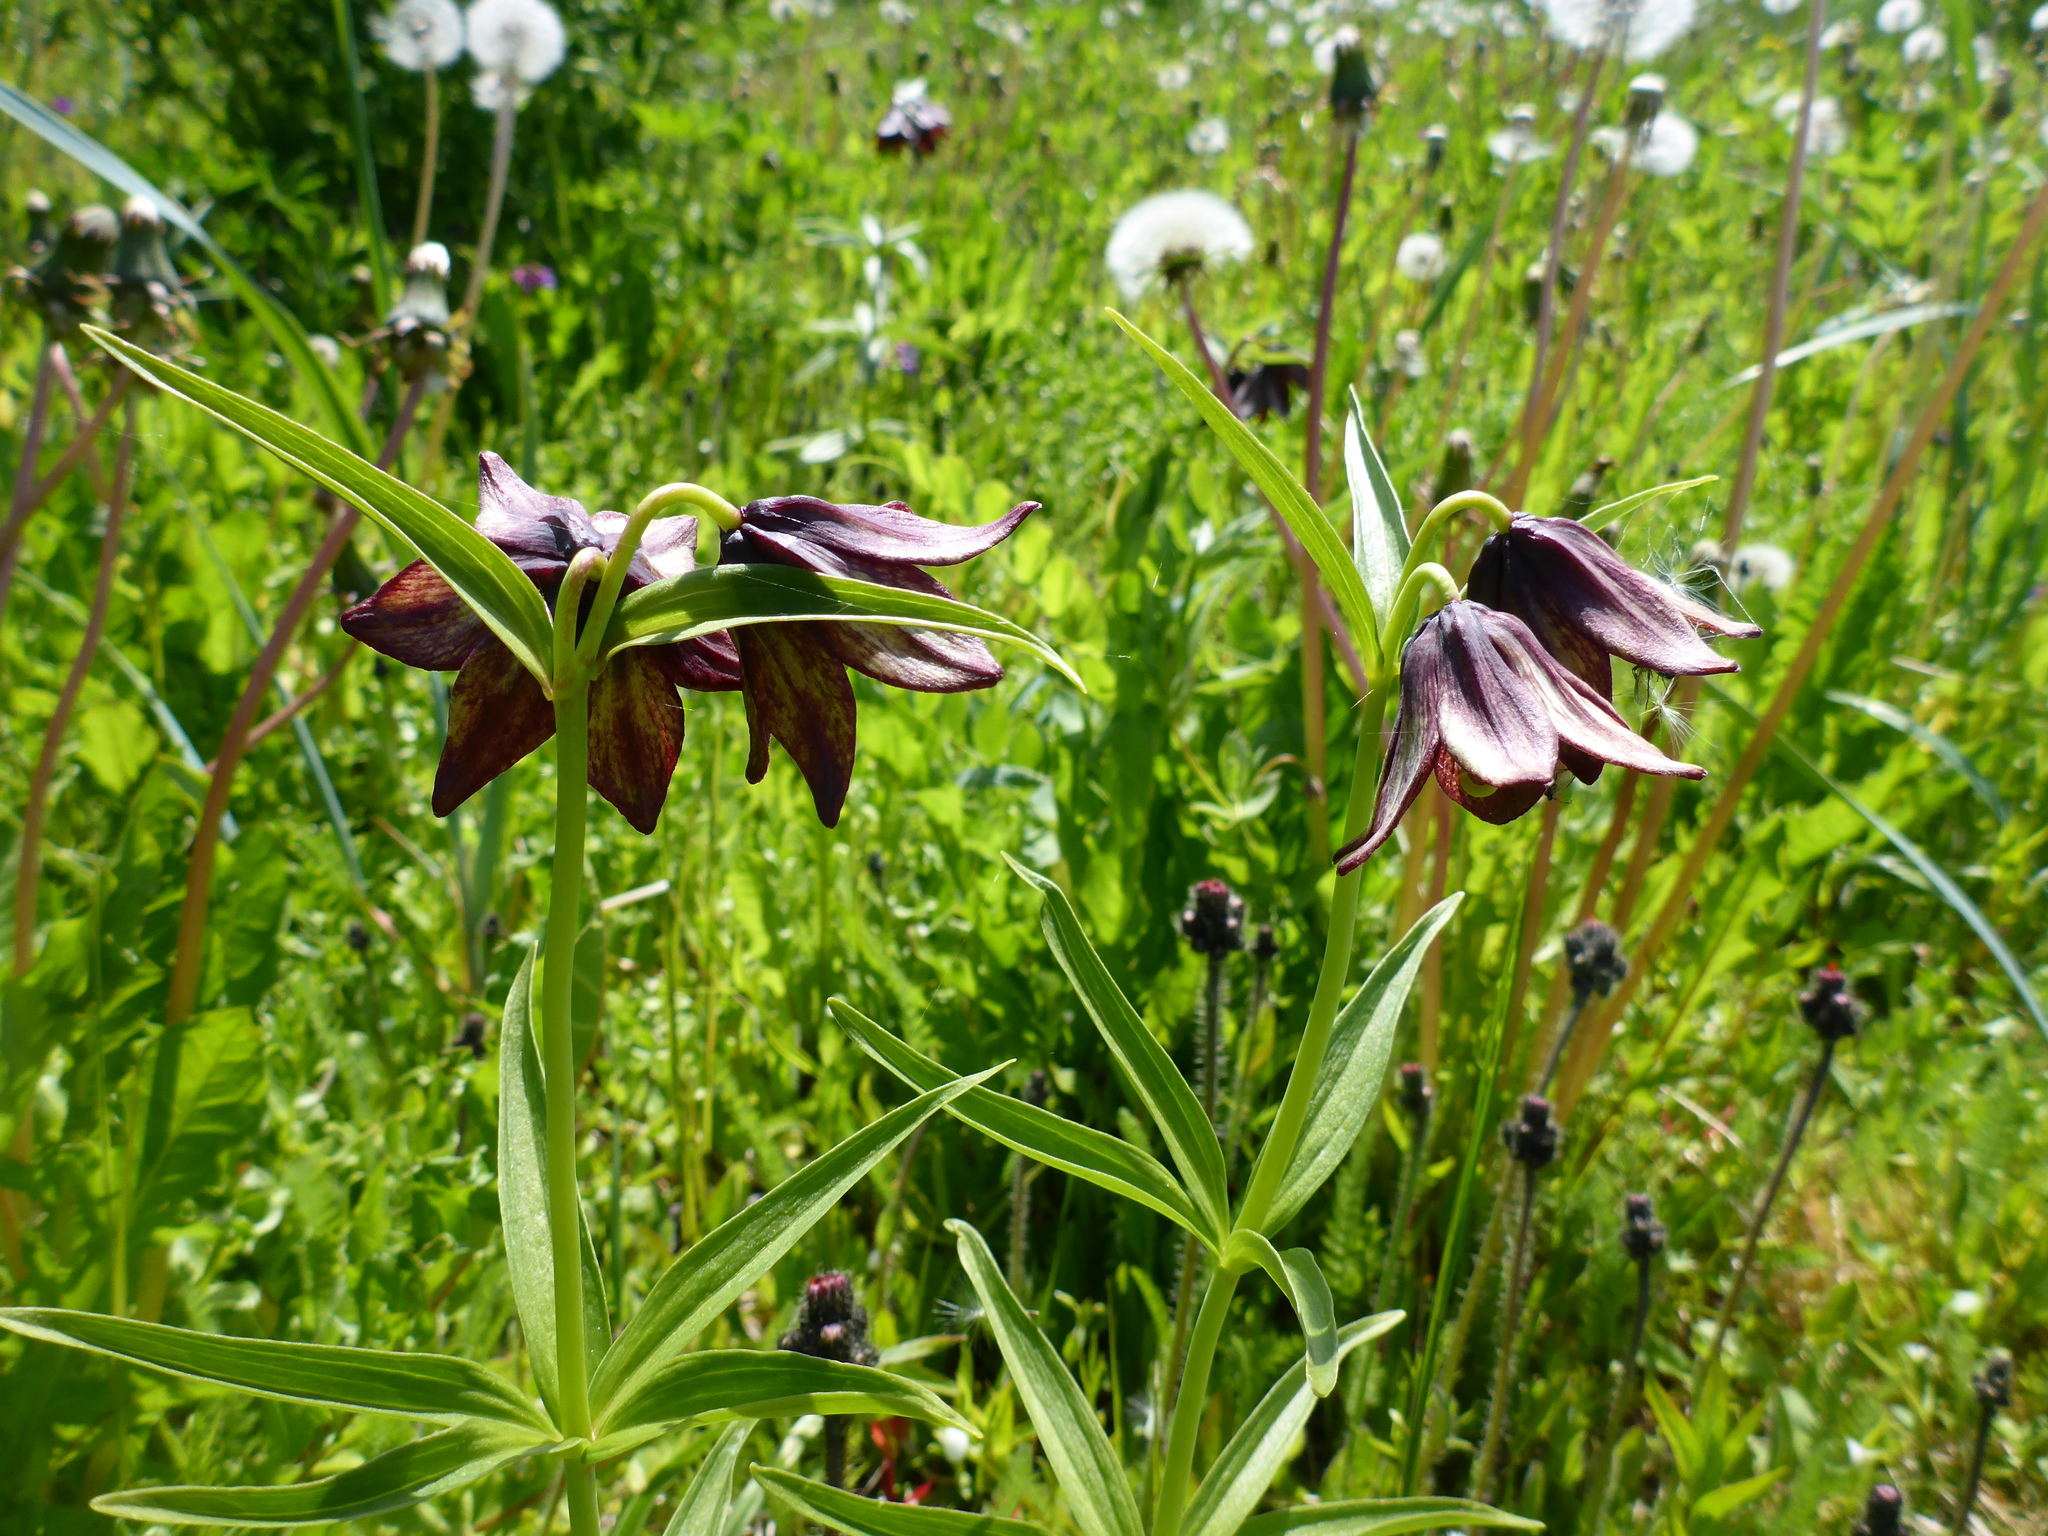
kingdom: Plantae
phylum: Tracheophyta
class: Liliopsida
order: Liliales
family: Liliaceae
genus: Fritillaria
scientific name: Fritillaria camschatcensis
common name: Kamchatka fritillary
